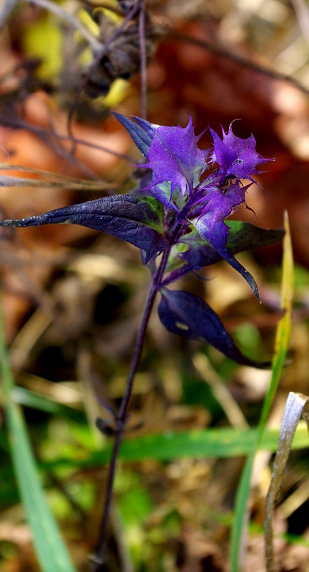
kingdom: Plantae
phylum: Tracheophyta
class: Magnoliopsida
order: Lamiales
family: Orobanchaceae
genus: Melampyrum
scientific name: Melampyrum nemorosum
